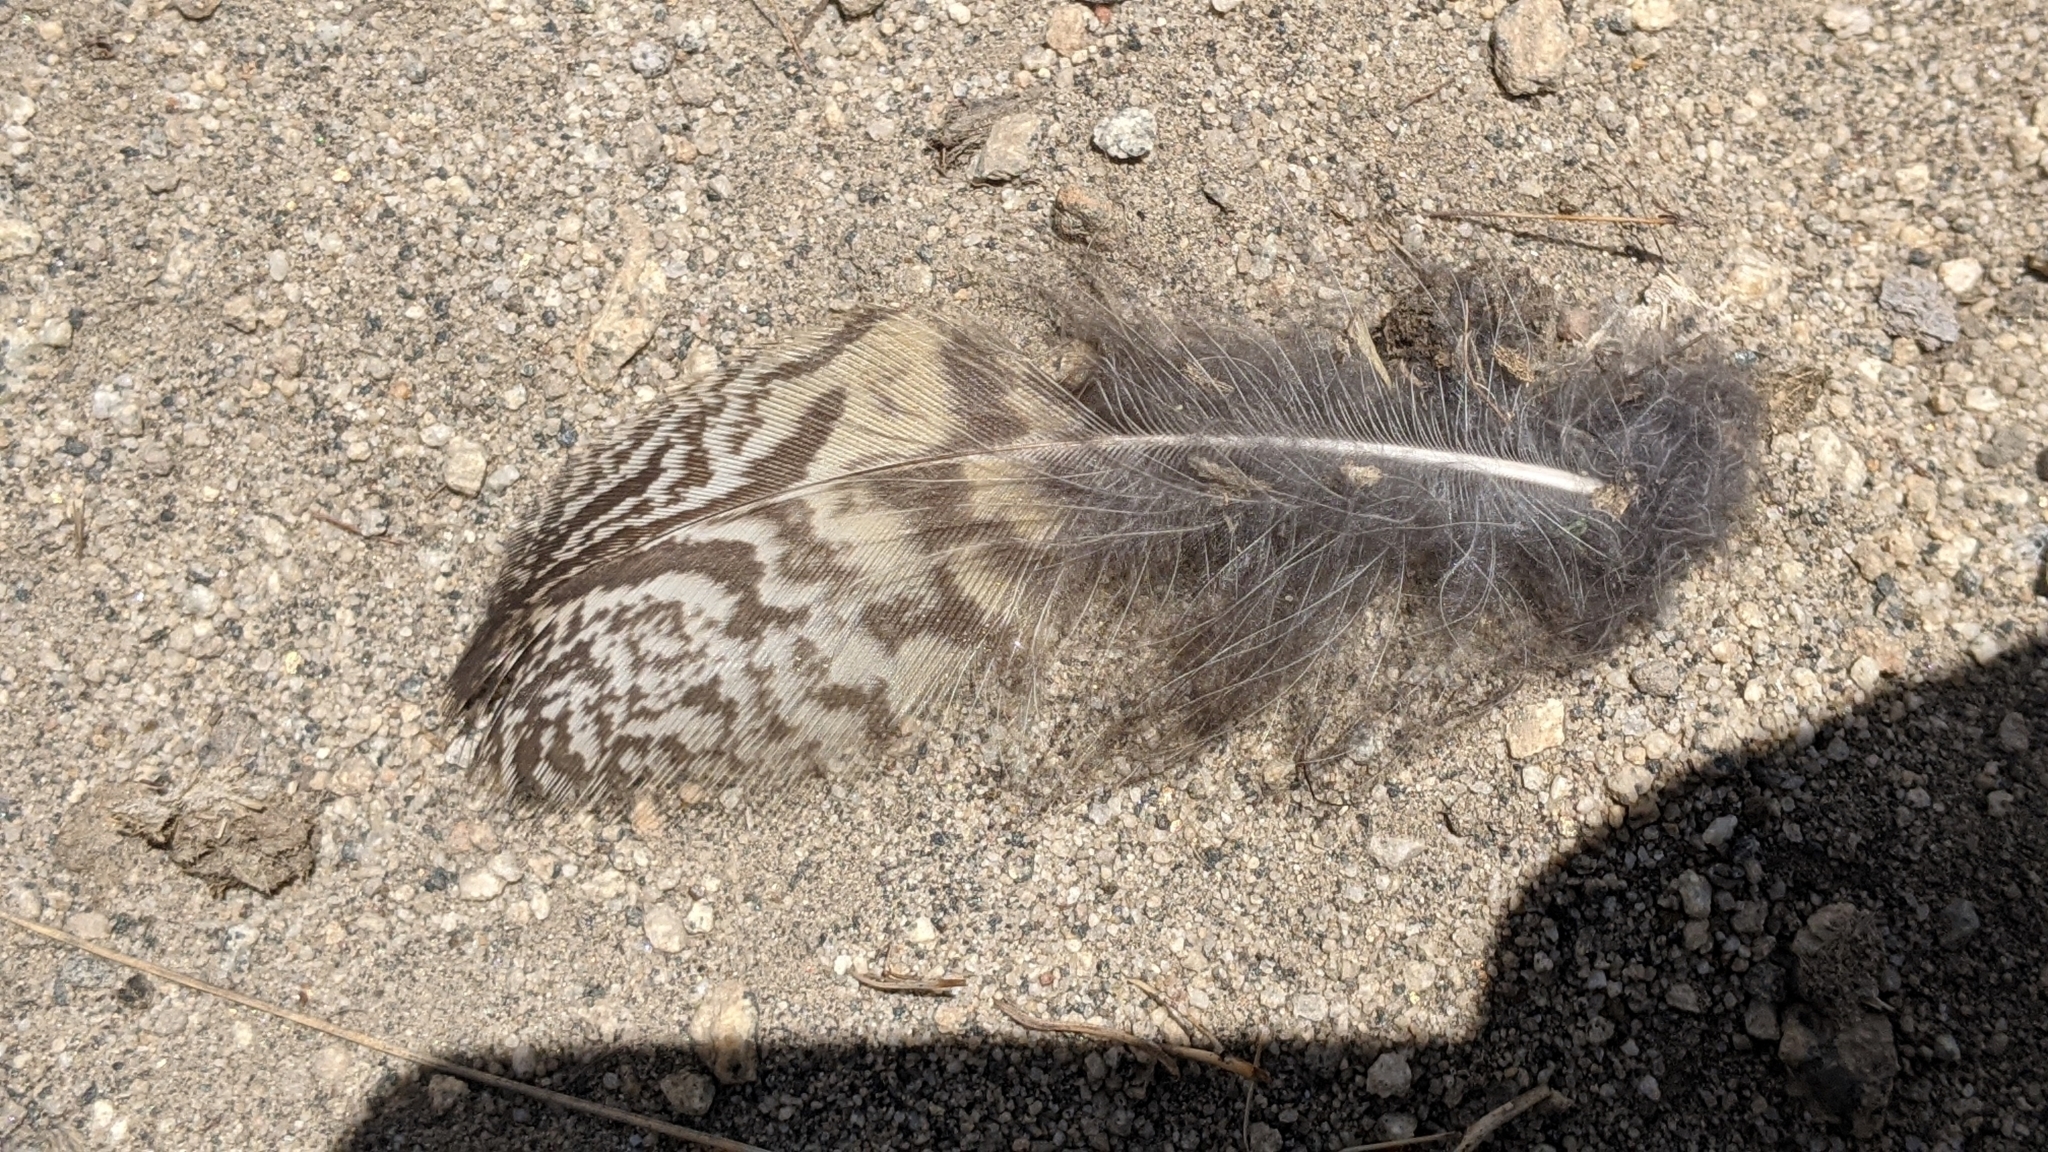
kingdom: Animalia
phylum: Chordata
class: Aves
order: Strigiformes
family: Strigidae
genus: Bubo
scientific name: Bubo virginianus
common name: Great horned owl
